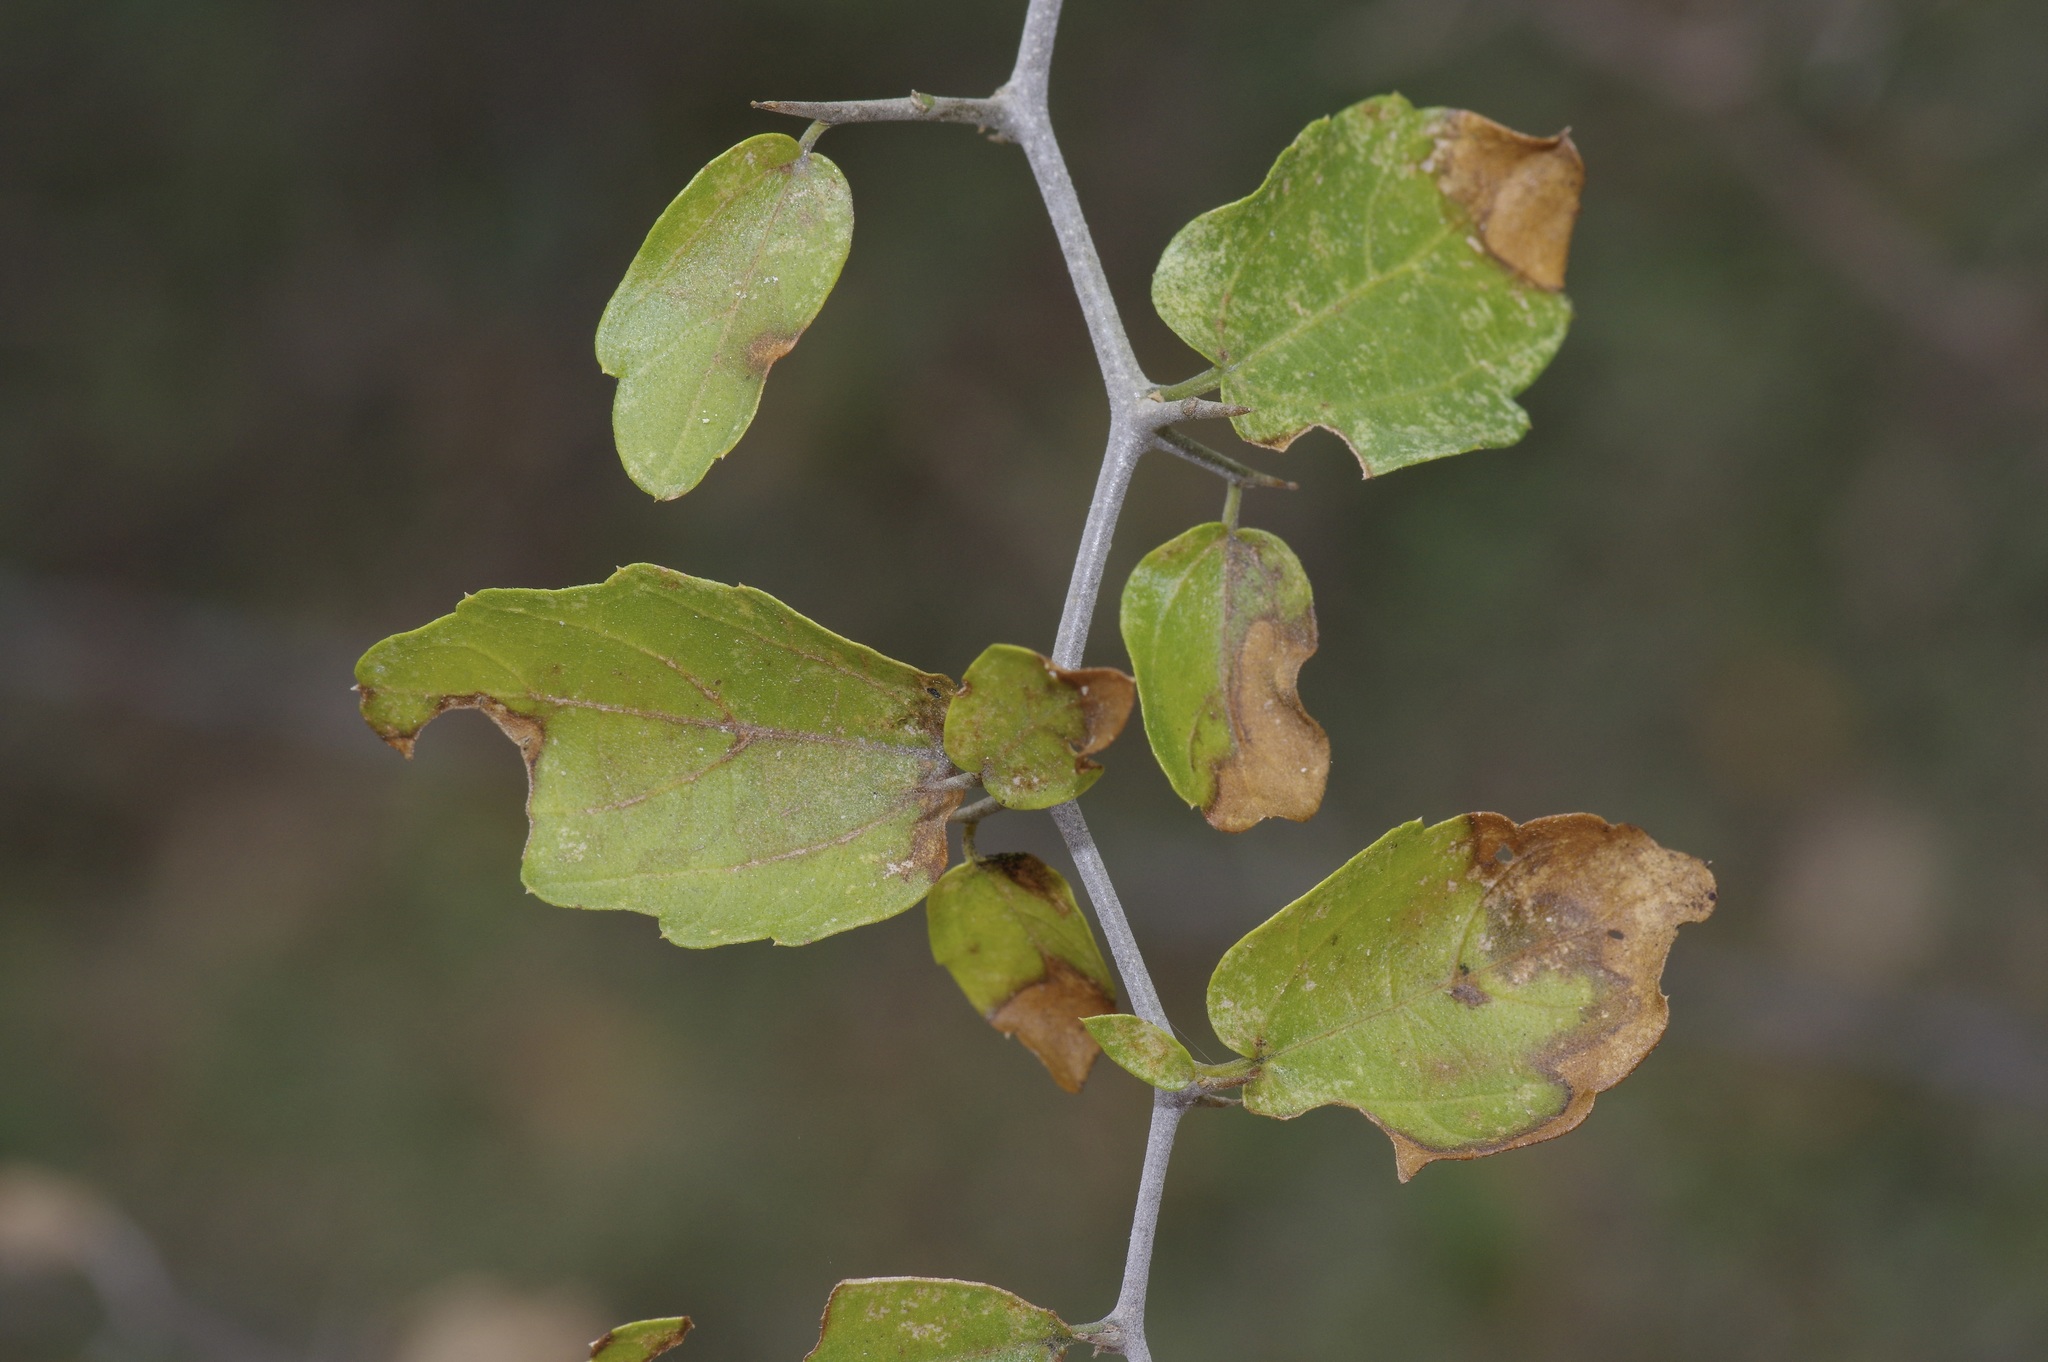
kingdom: Plantae
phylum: Tracheophyta
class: Magnoliopsida
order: Rosales
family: Cannabaceae
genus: Celtis
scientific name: Celtis pallida
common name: Desert hackberry
